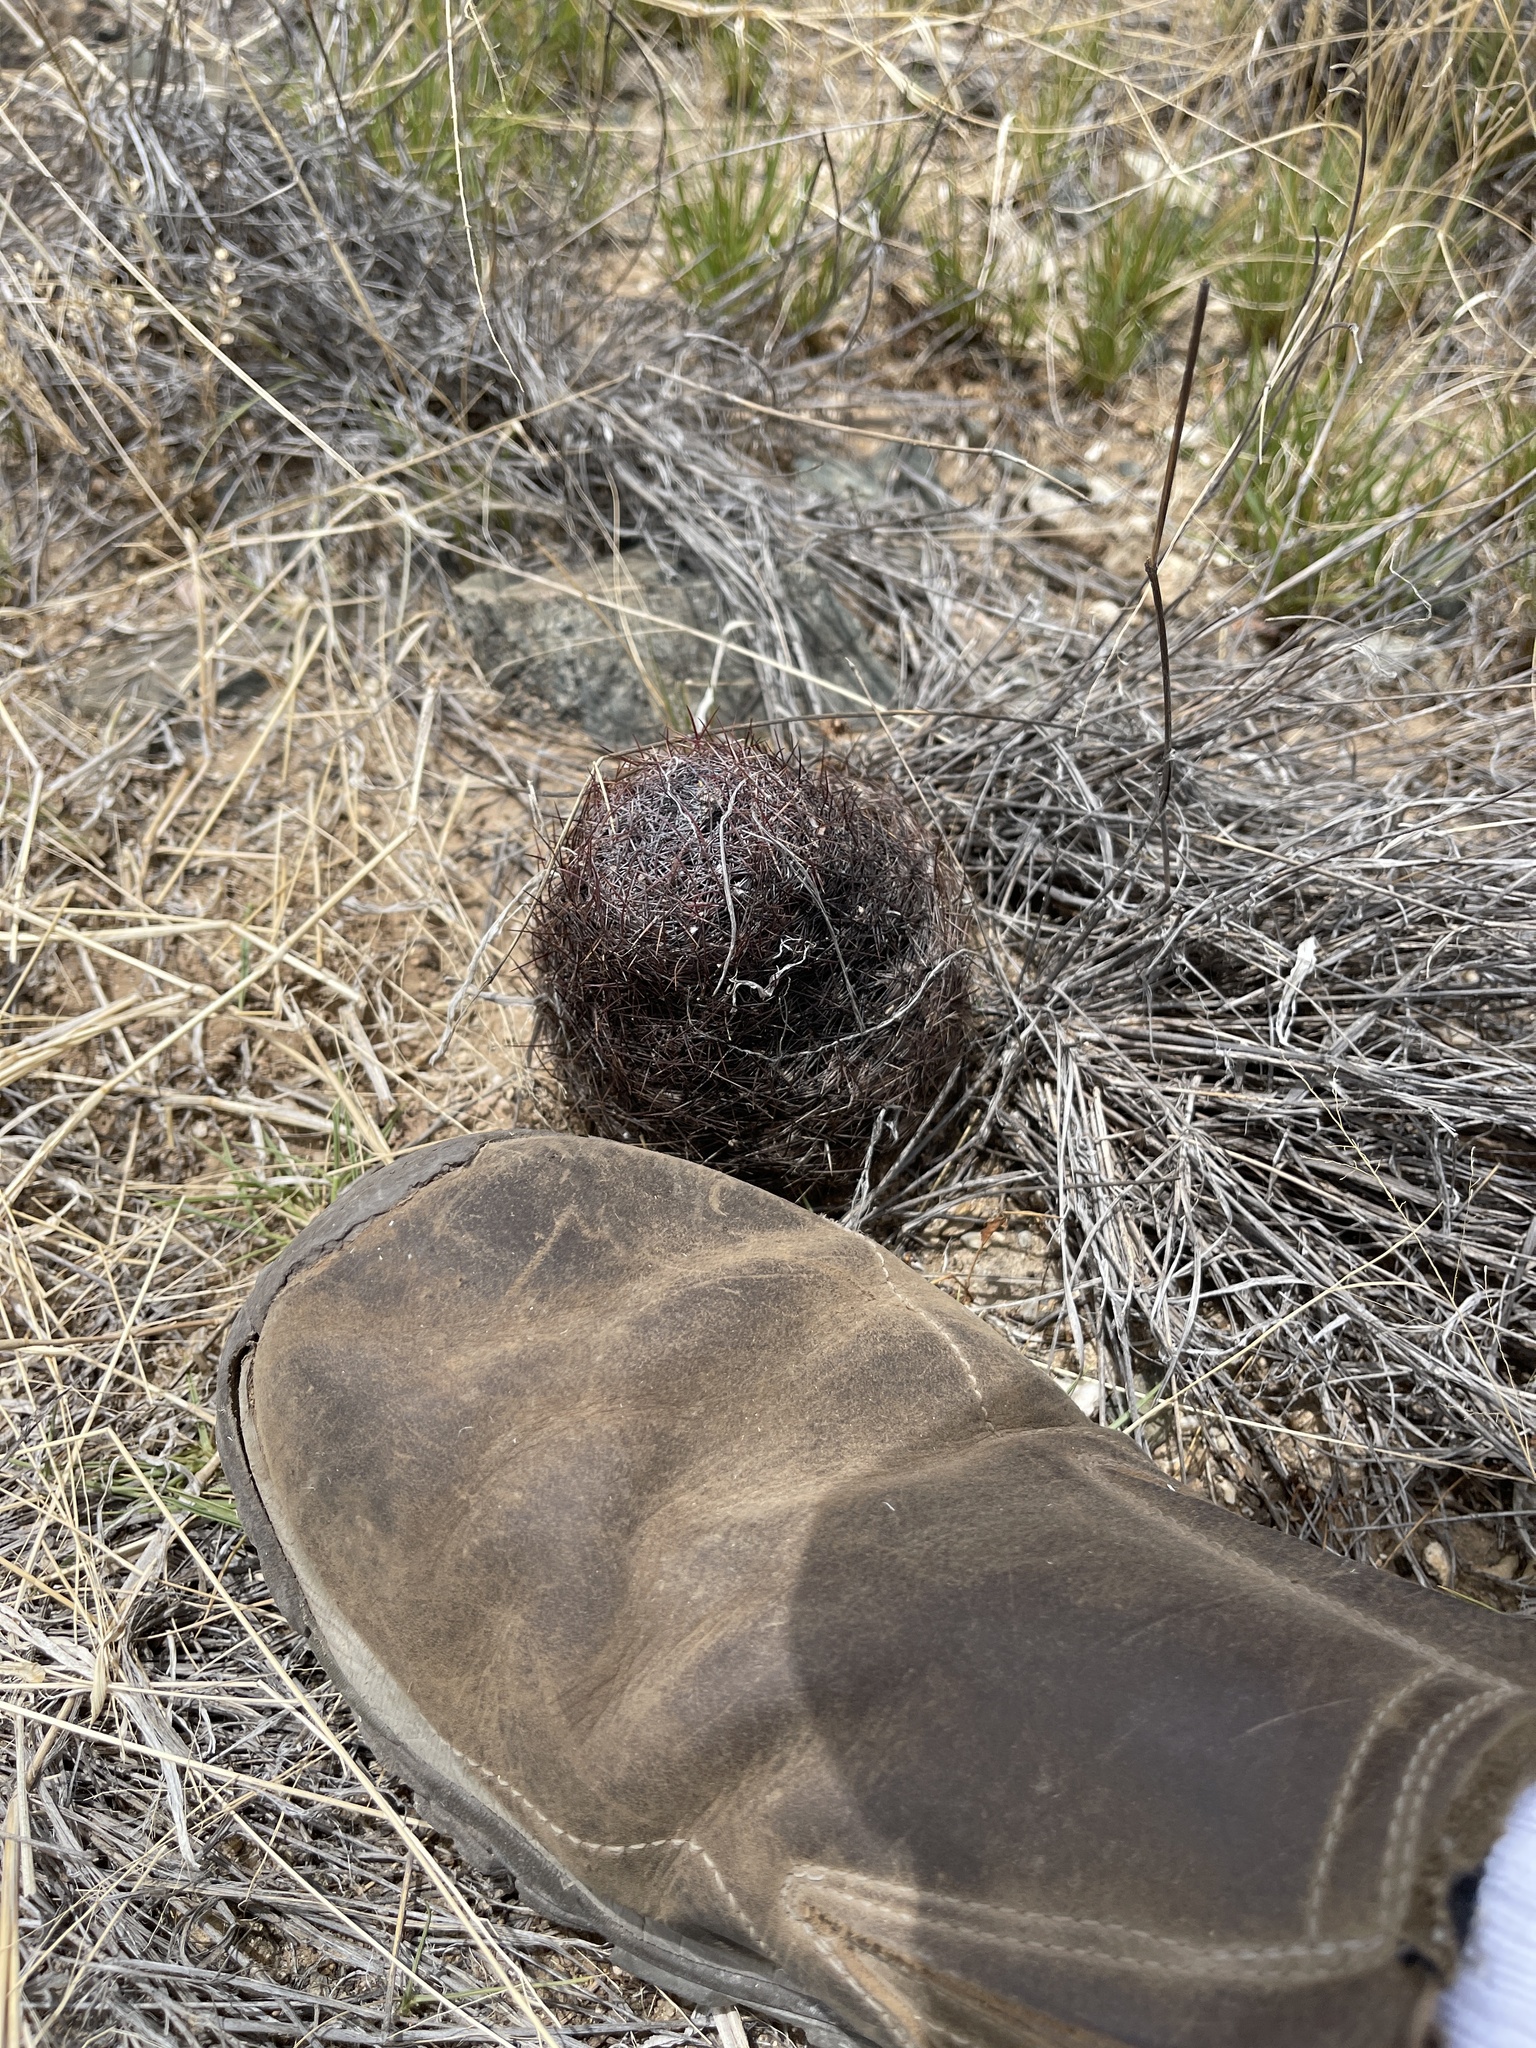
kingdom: Plantae
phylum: Tracheophyta
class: Magnoliopsida
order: Caryophyllales
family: Cactaceae
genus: Sclerocactus
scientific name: Sclerocactus johnsonii
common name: Eight-spine fishhook cactus
